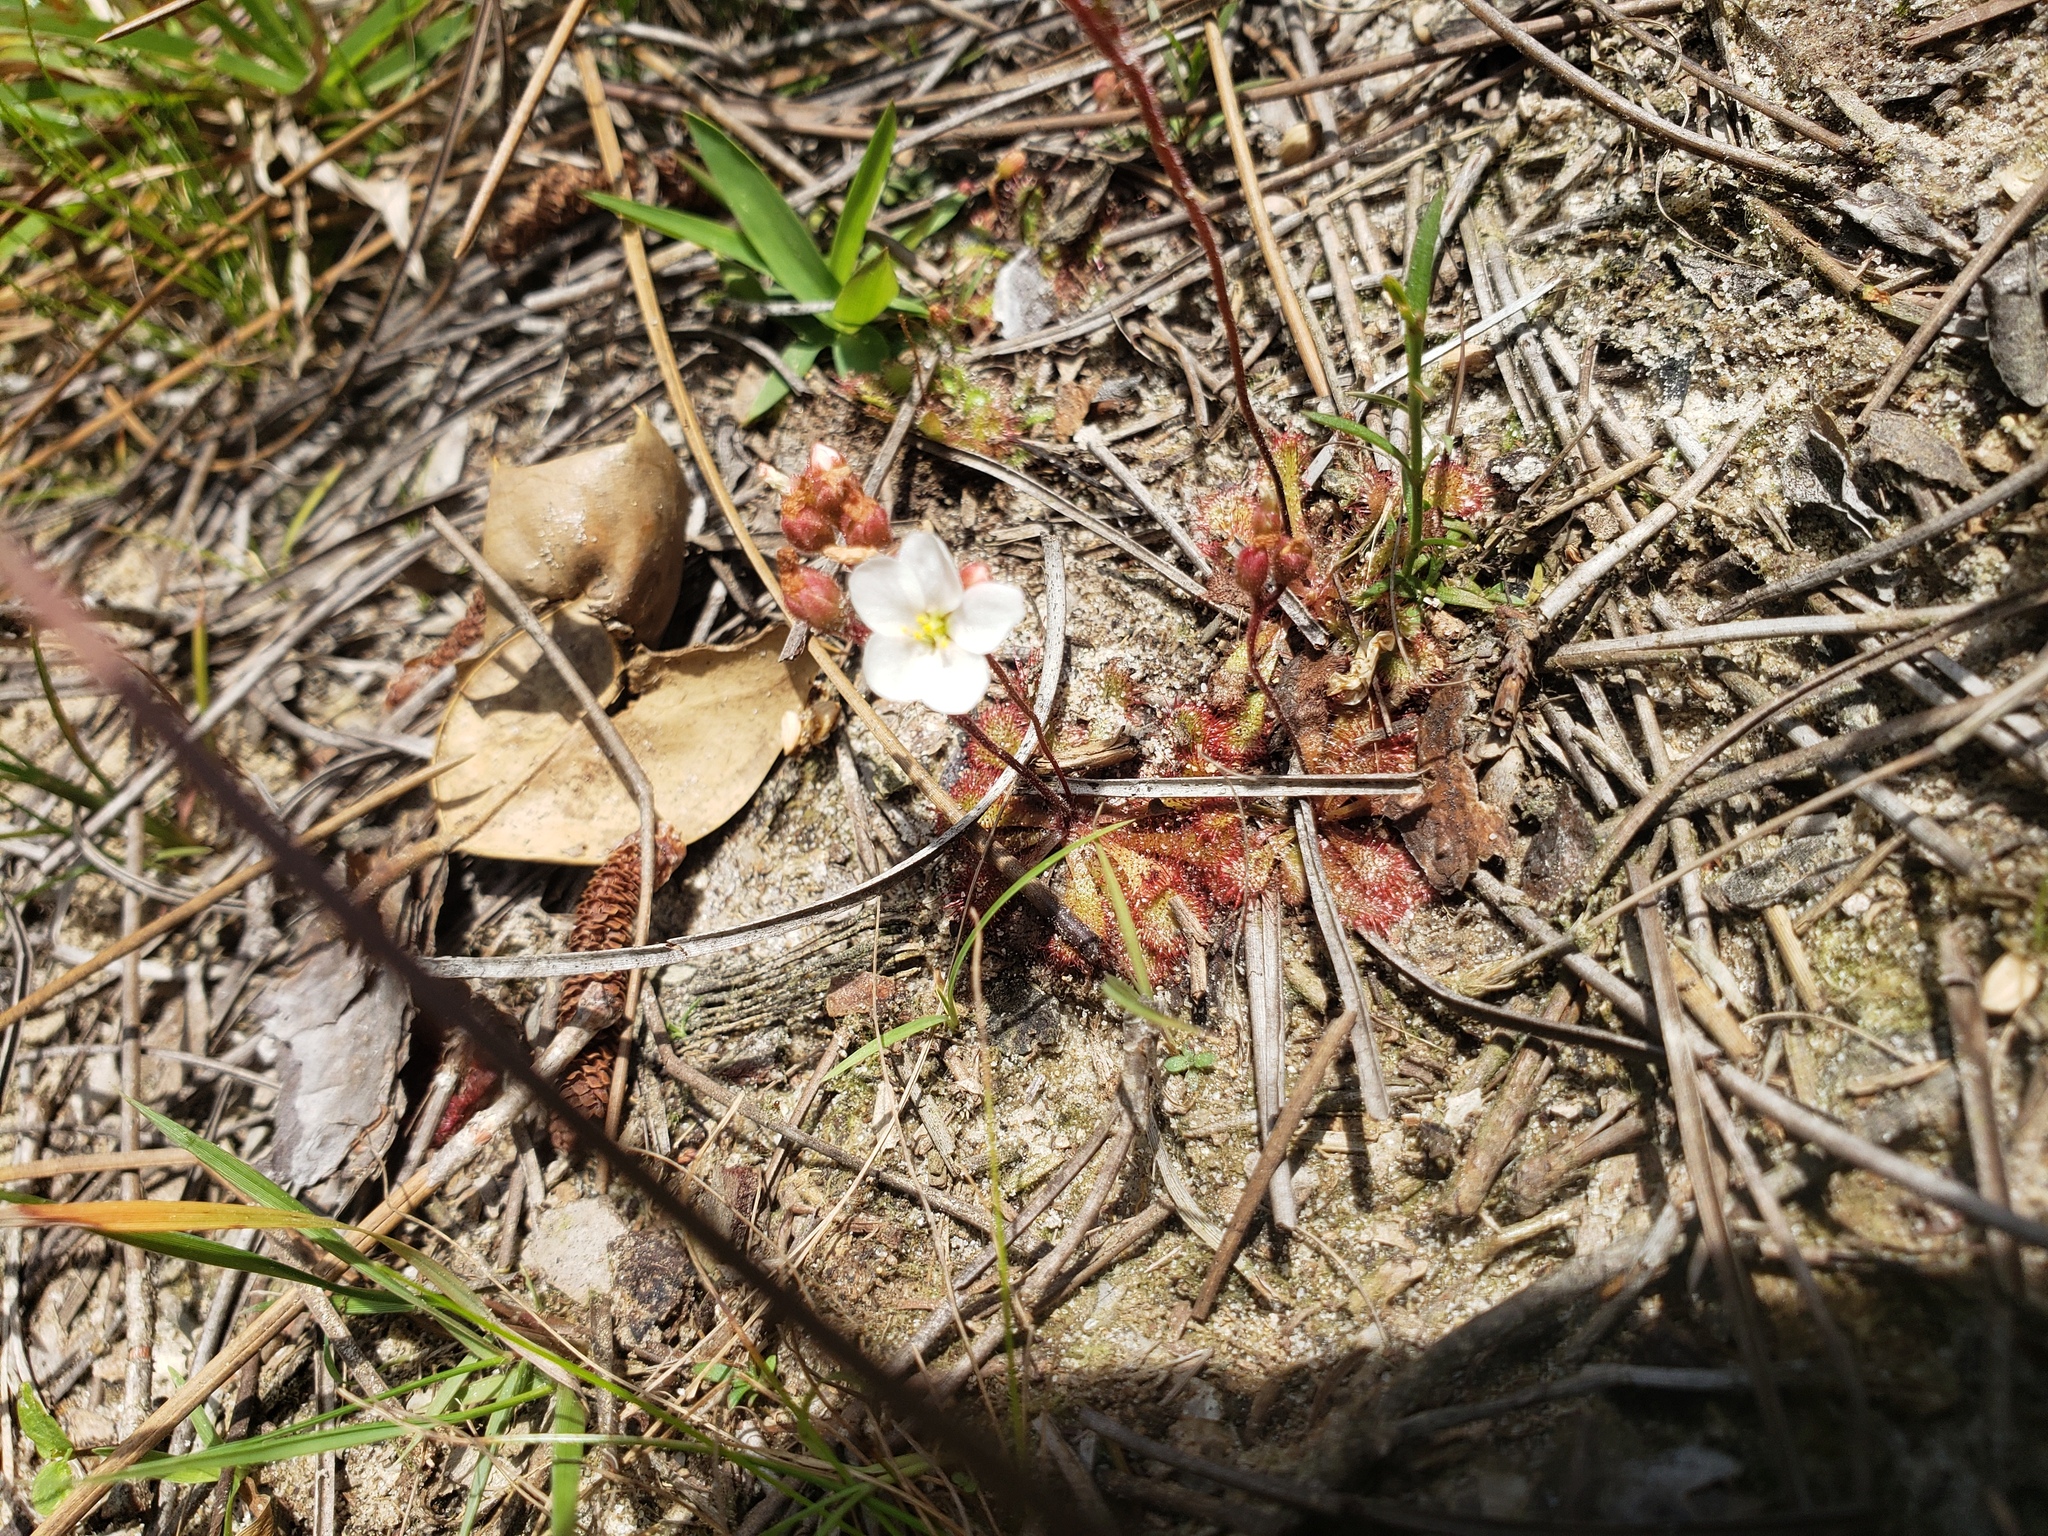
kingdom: Plantae
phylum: Tracheophyta
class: Magnoliopsida
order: Caryophyllales
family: Droseraceae
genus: Drosera
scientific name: Drosera brevifolia
